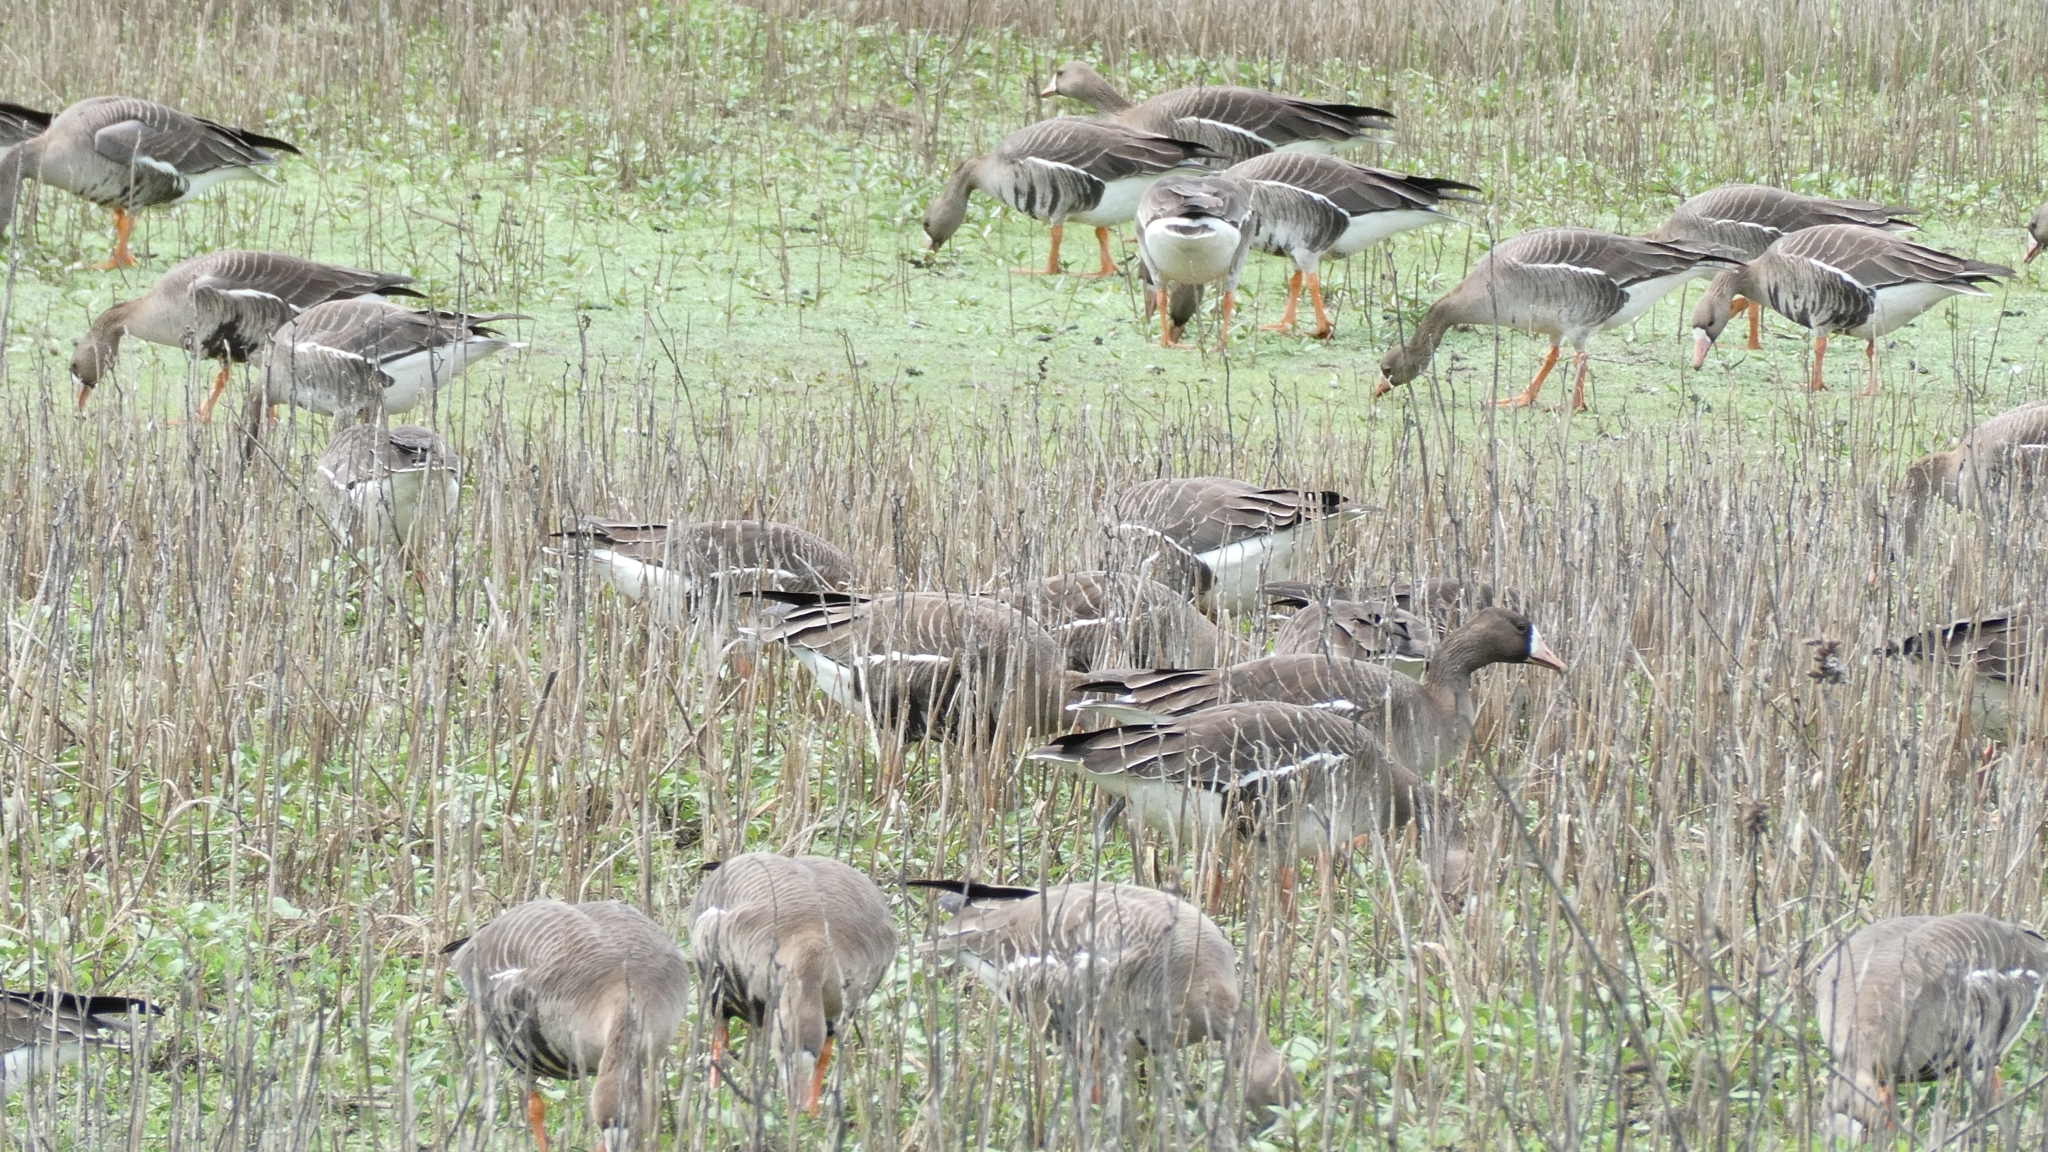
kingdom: Animalia
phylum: Chordata
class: Aves
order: Anseriformes
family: Anatidae
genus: Anser
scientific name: Anser albifrons
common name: Greater white-fronted goose
